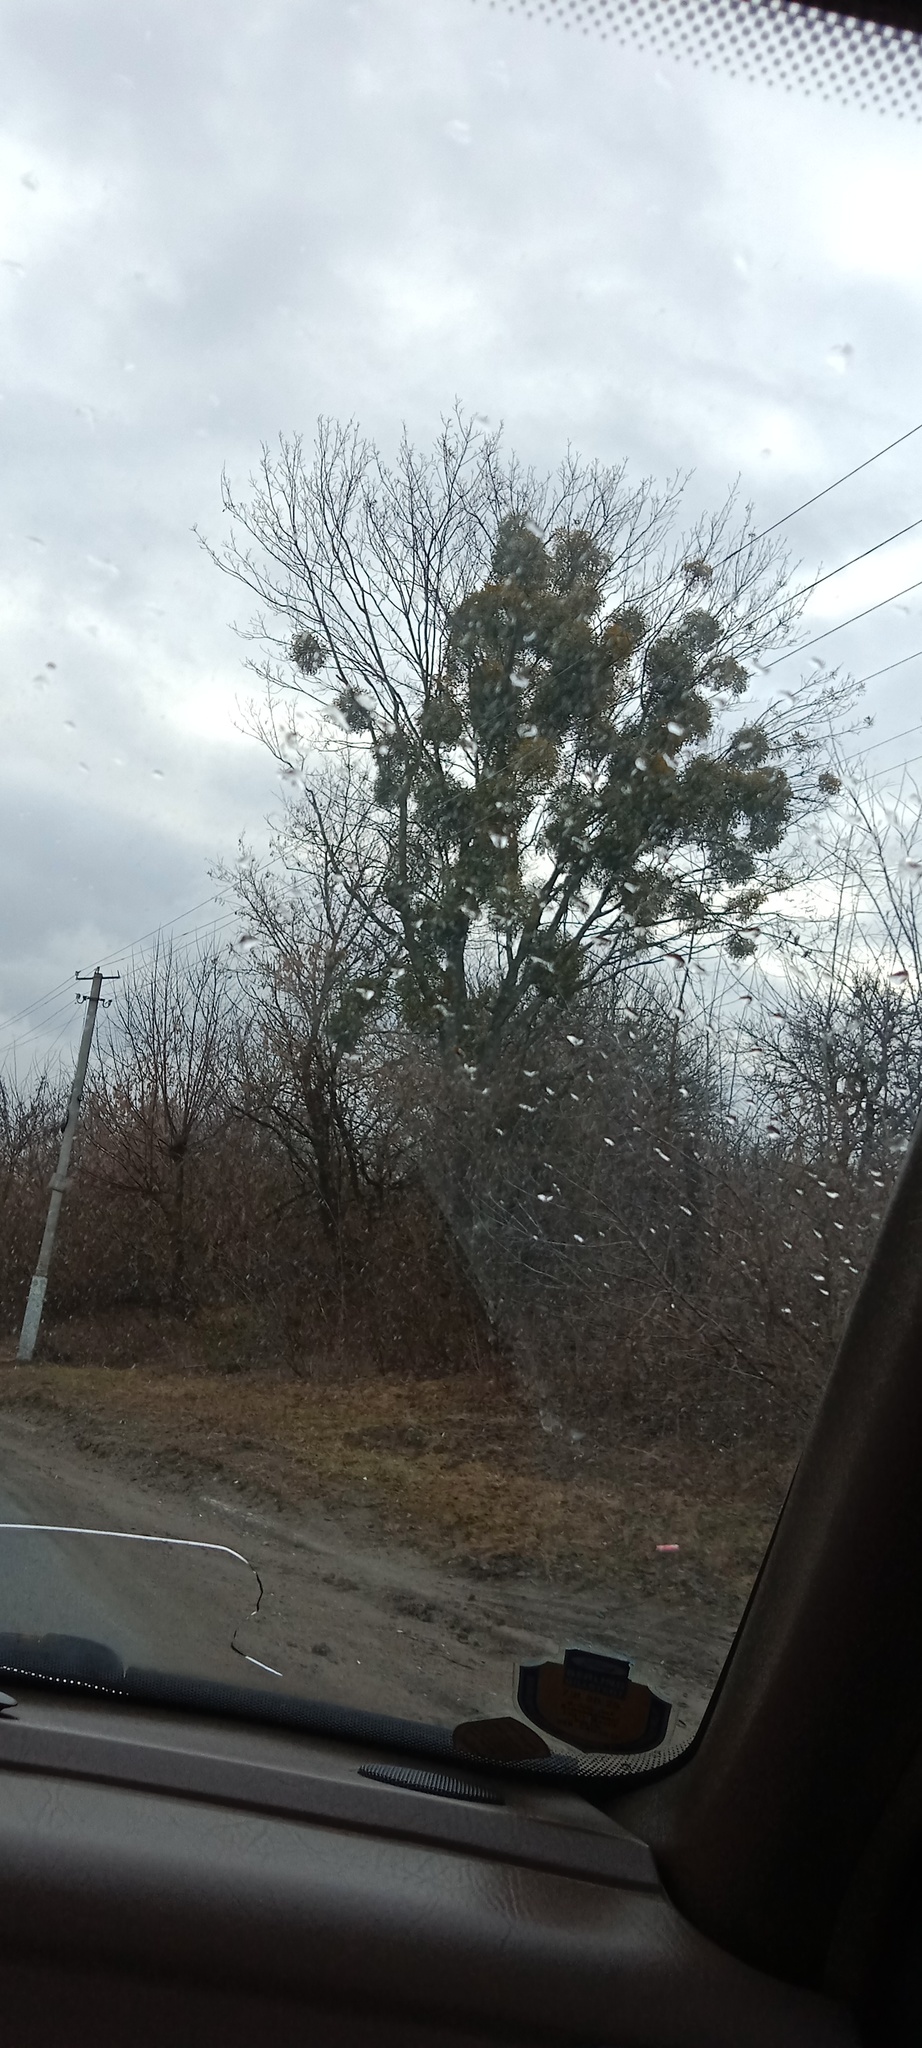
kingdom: Plantae
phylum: Tracheophyta
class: Magnoliopsida
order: Santalales
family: Viscaceae
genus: Viscum
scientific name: Viscum album
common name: Mistletoe
